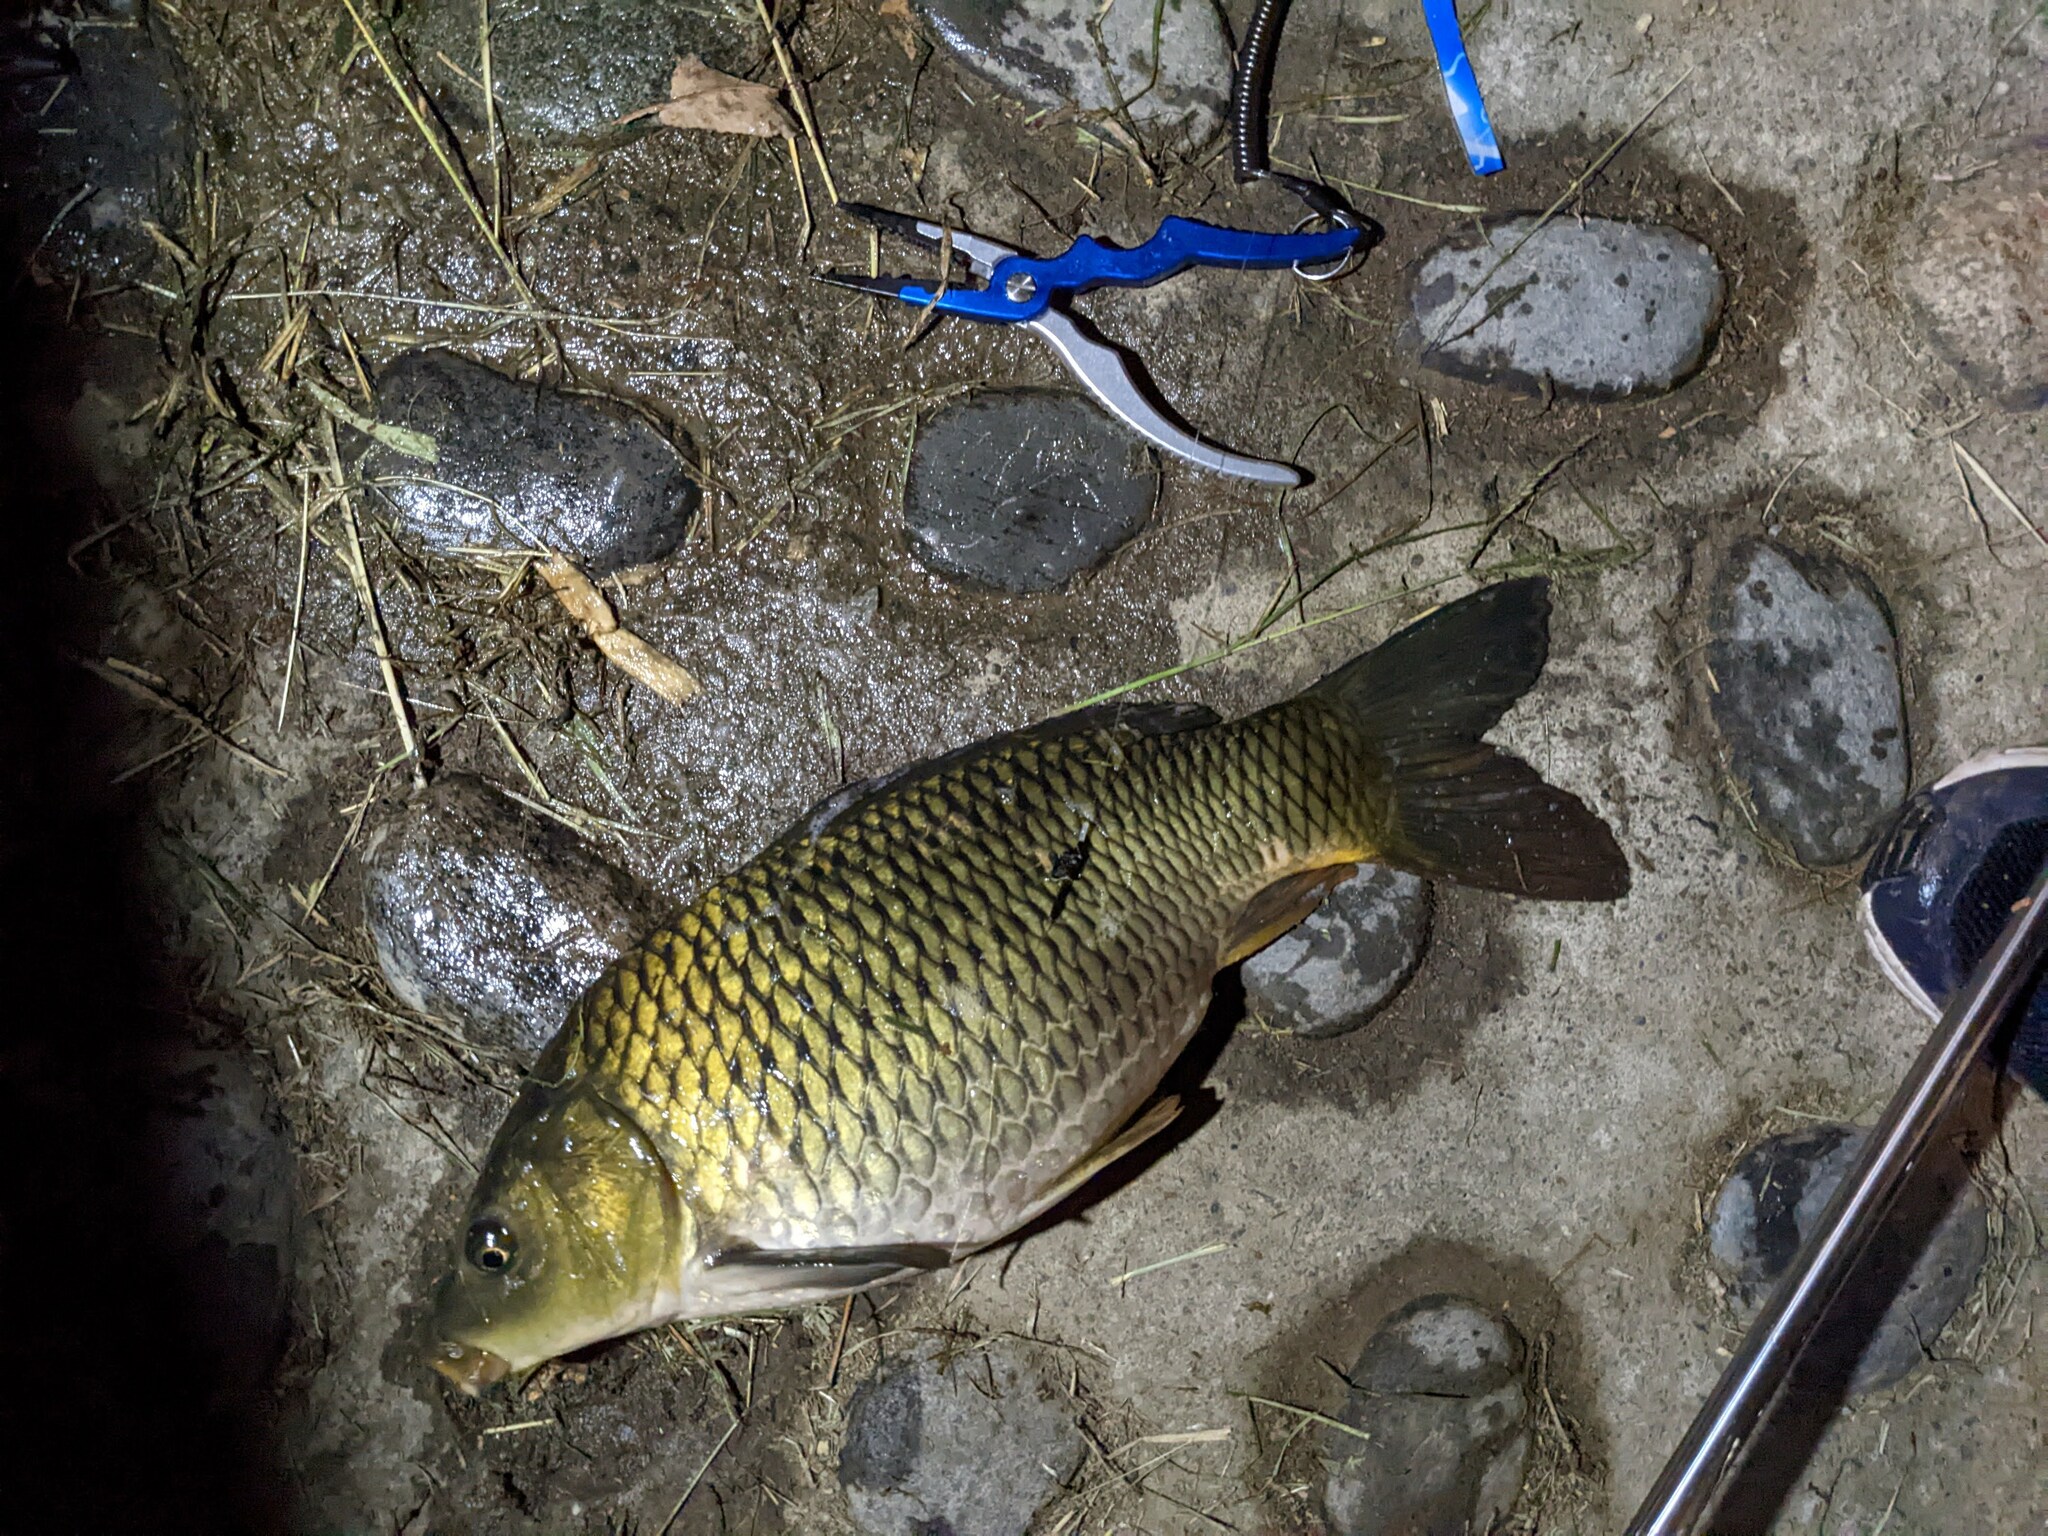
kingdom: Animalia
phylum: Chordata
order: Cypriniformes
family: Cyprinidae
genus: Cyprinus
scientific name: Cyprinus carpio
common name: Common carp
